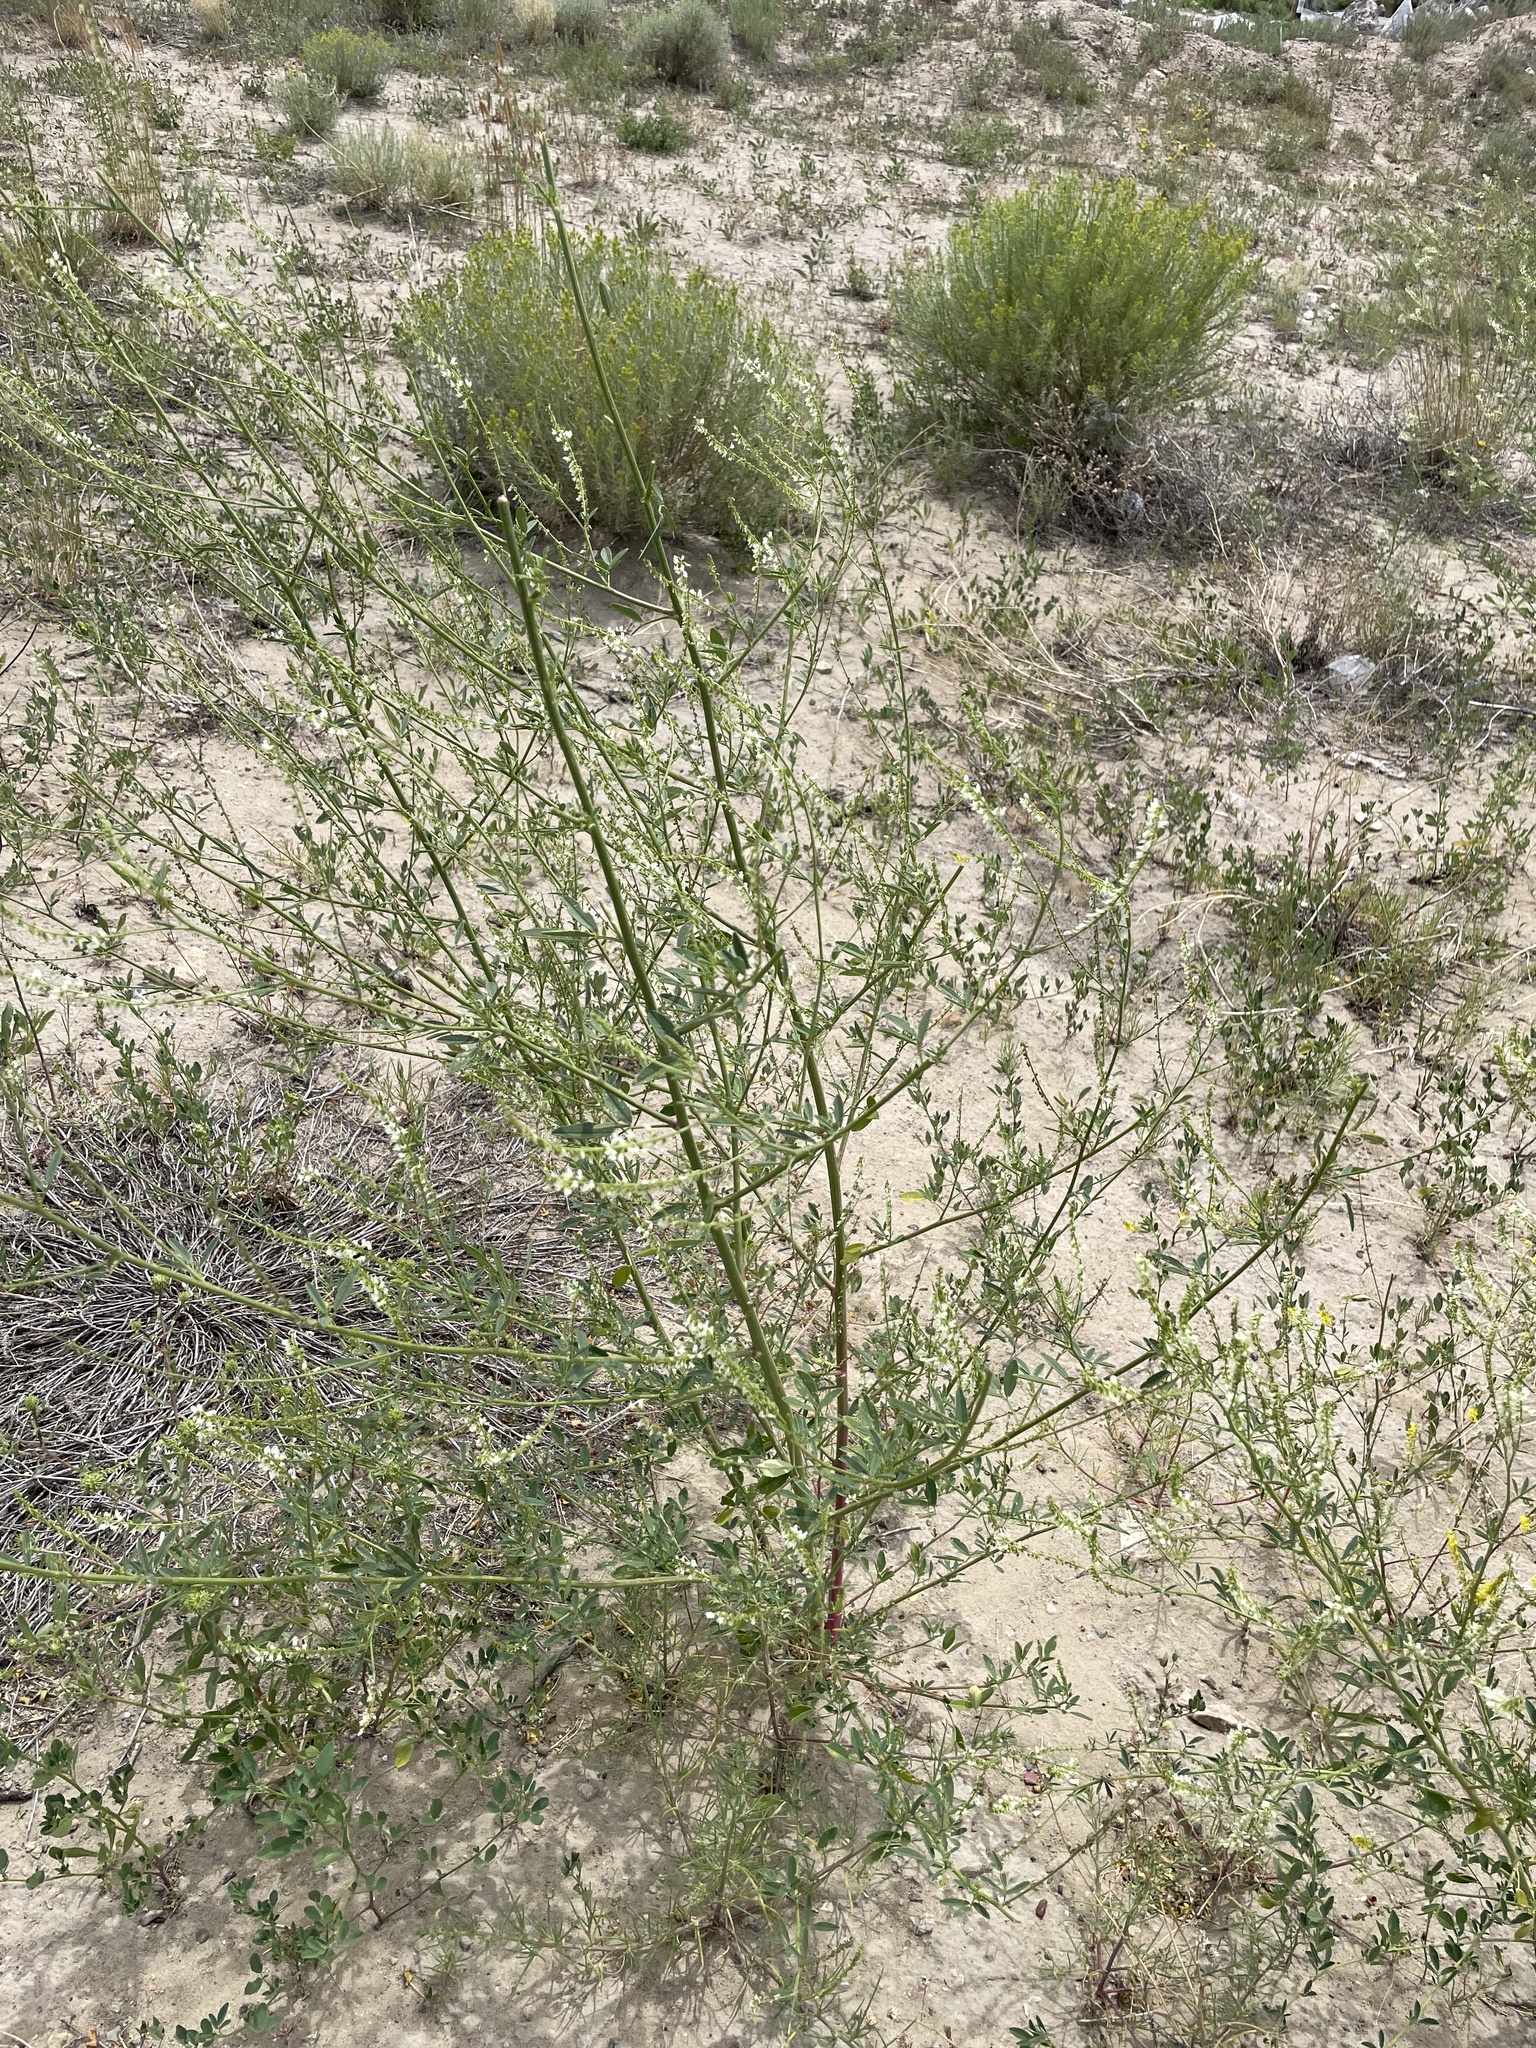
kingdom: Plantae
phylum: Tracheophyta
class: Magnoliopsida
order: Fabales
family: Fabaceae
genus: Melilotus
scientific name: Melilotus albus
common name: White melilot
